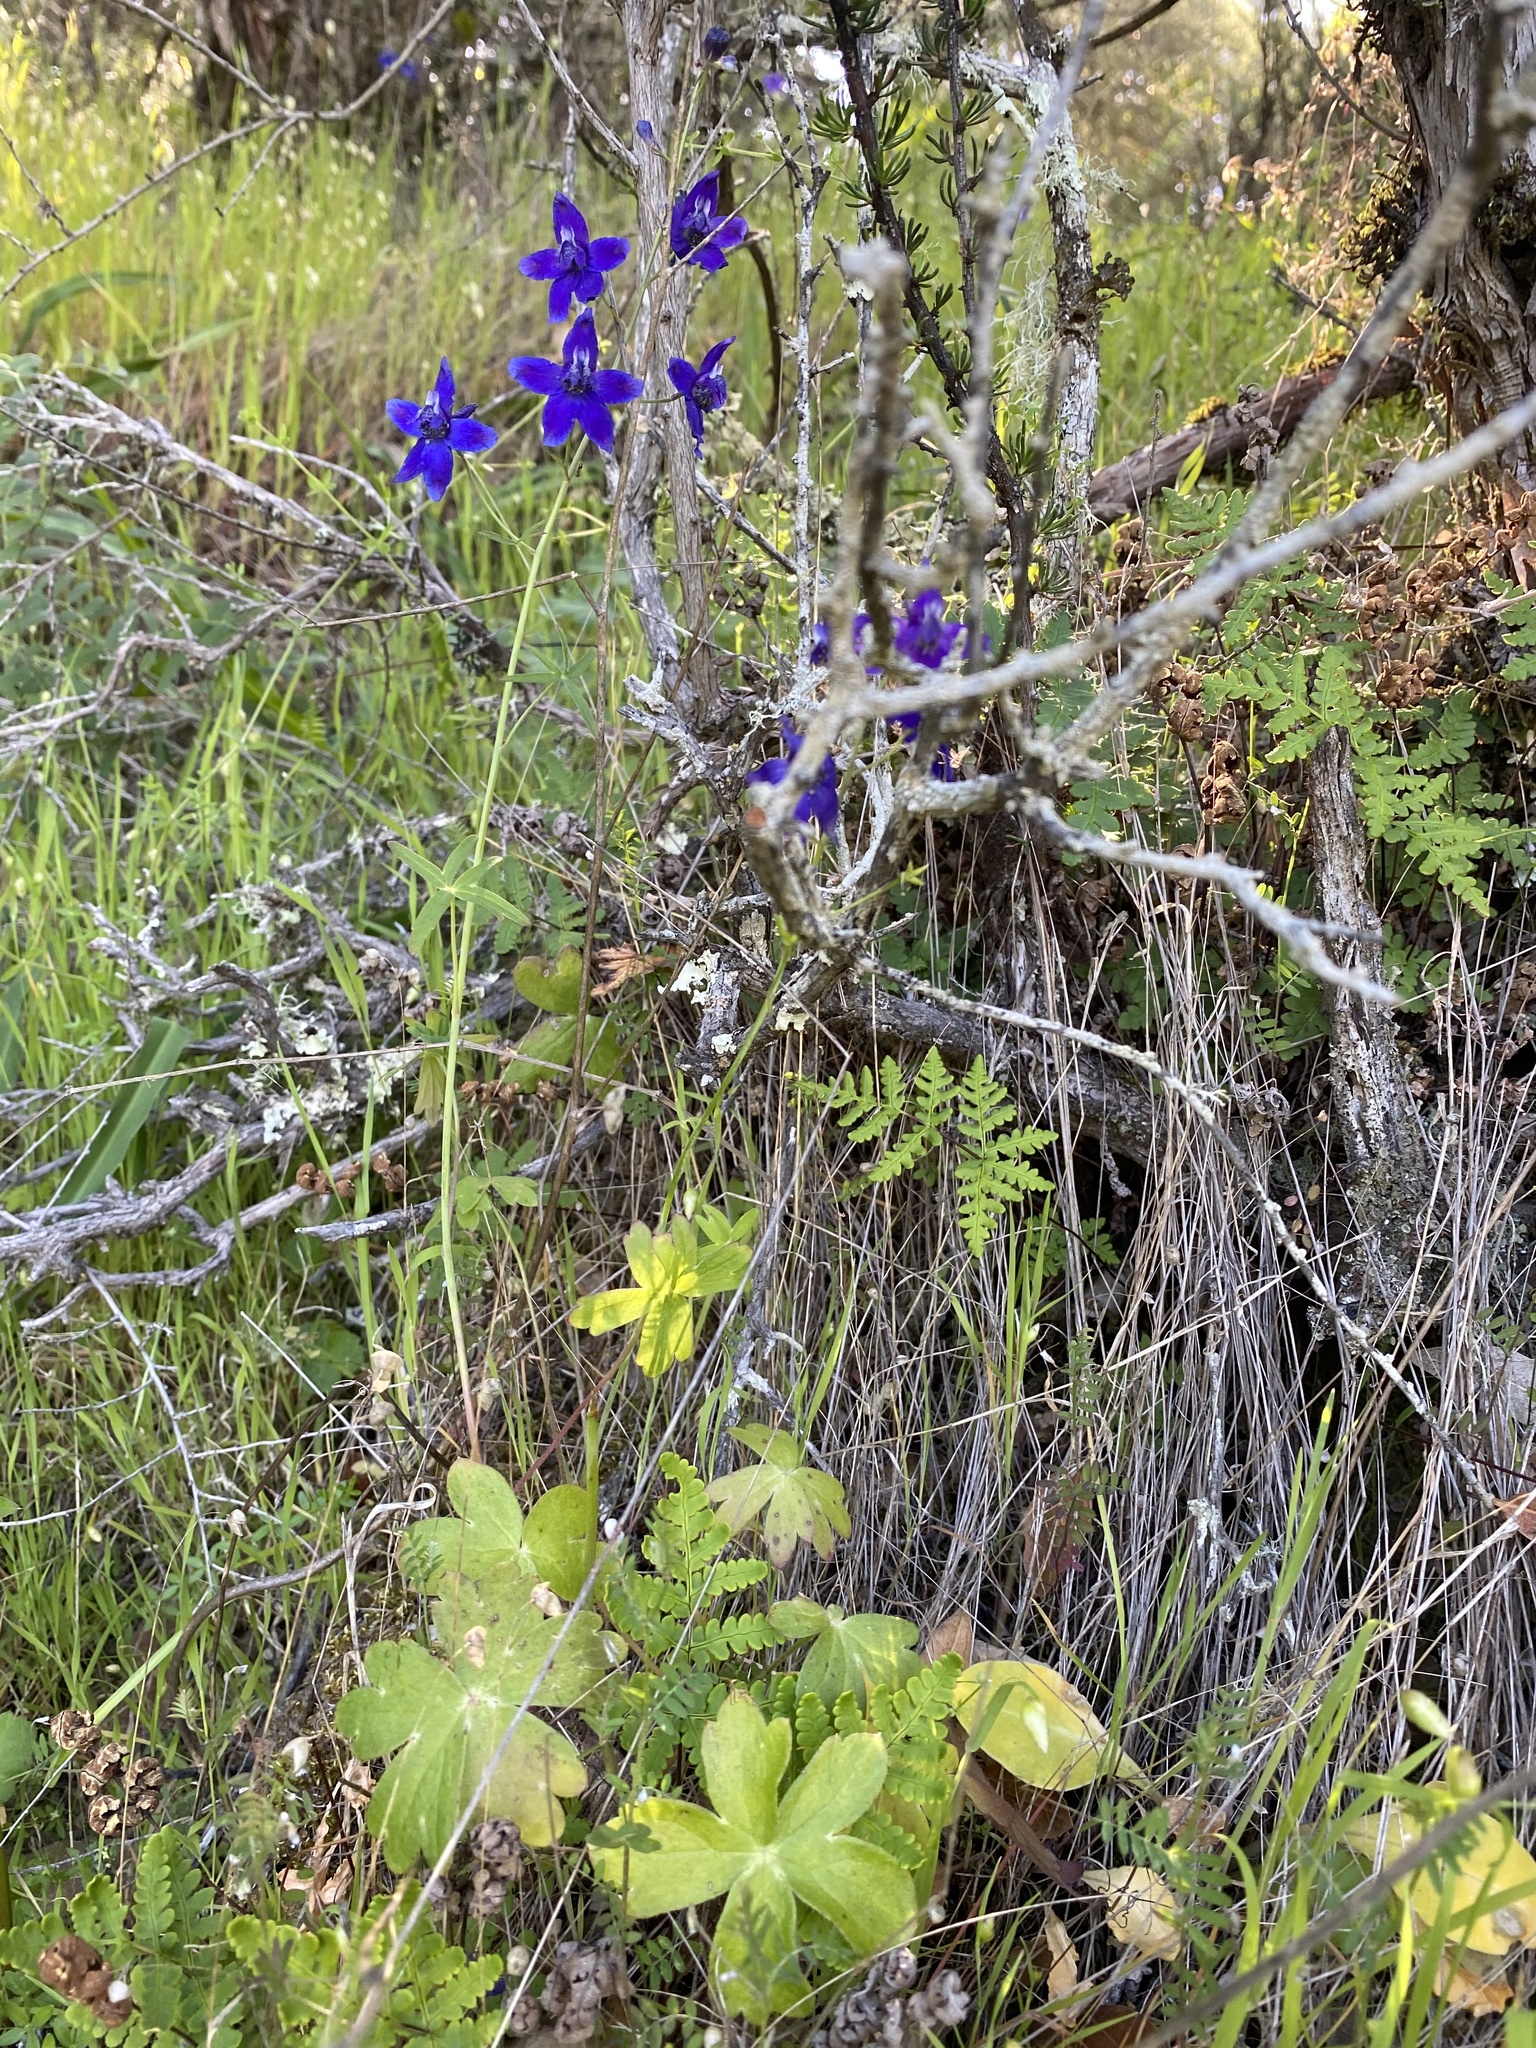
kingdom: Plantae
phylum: Tracheophyta
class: Magnoliopsida
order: Ranunculales
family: Ranunculaceae
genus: Delphinium
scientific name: Delphinium patens
